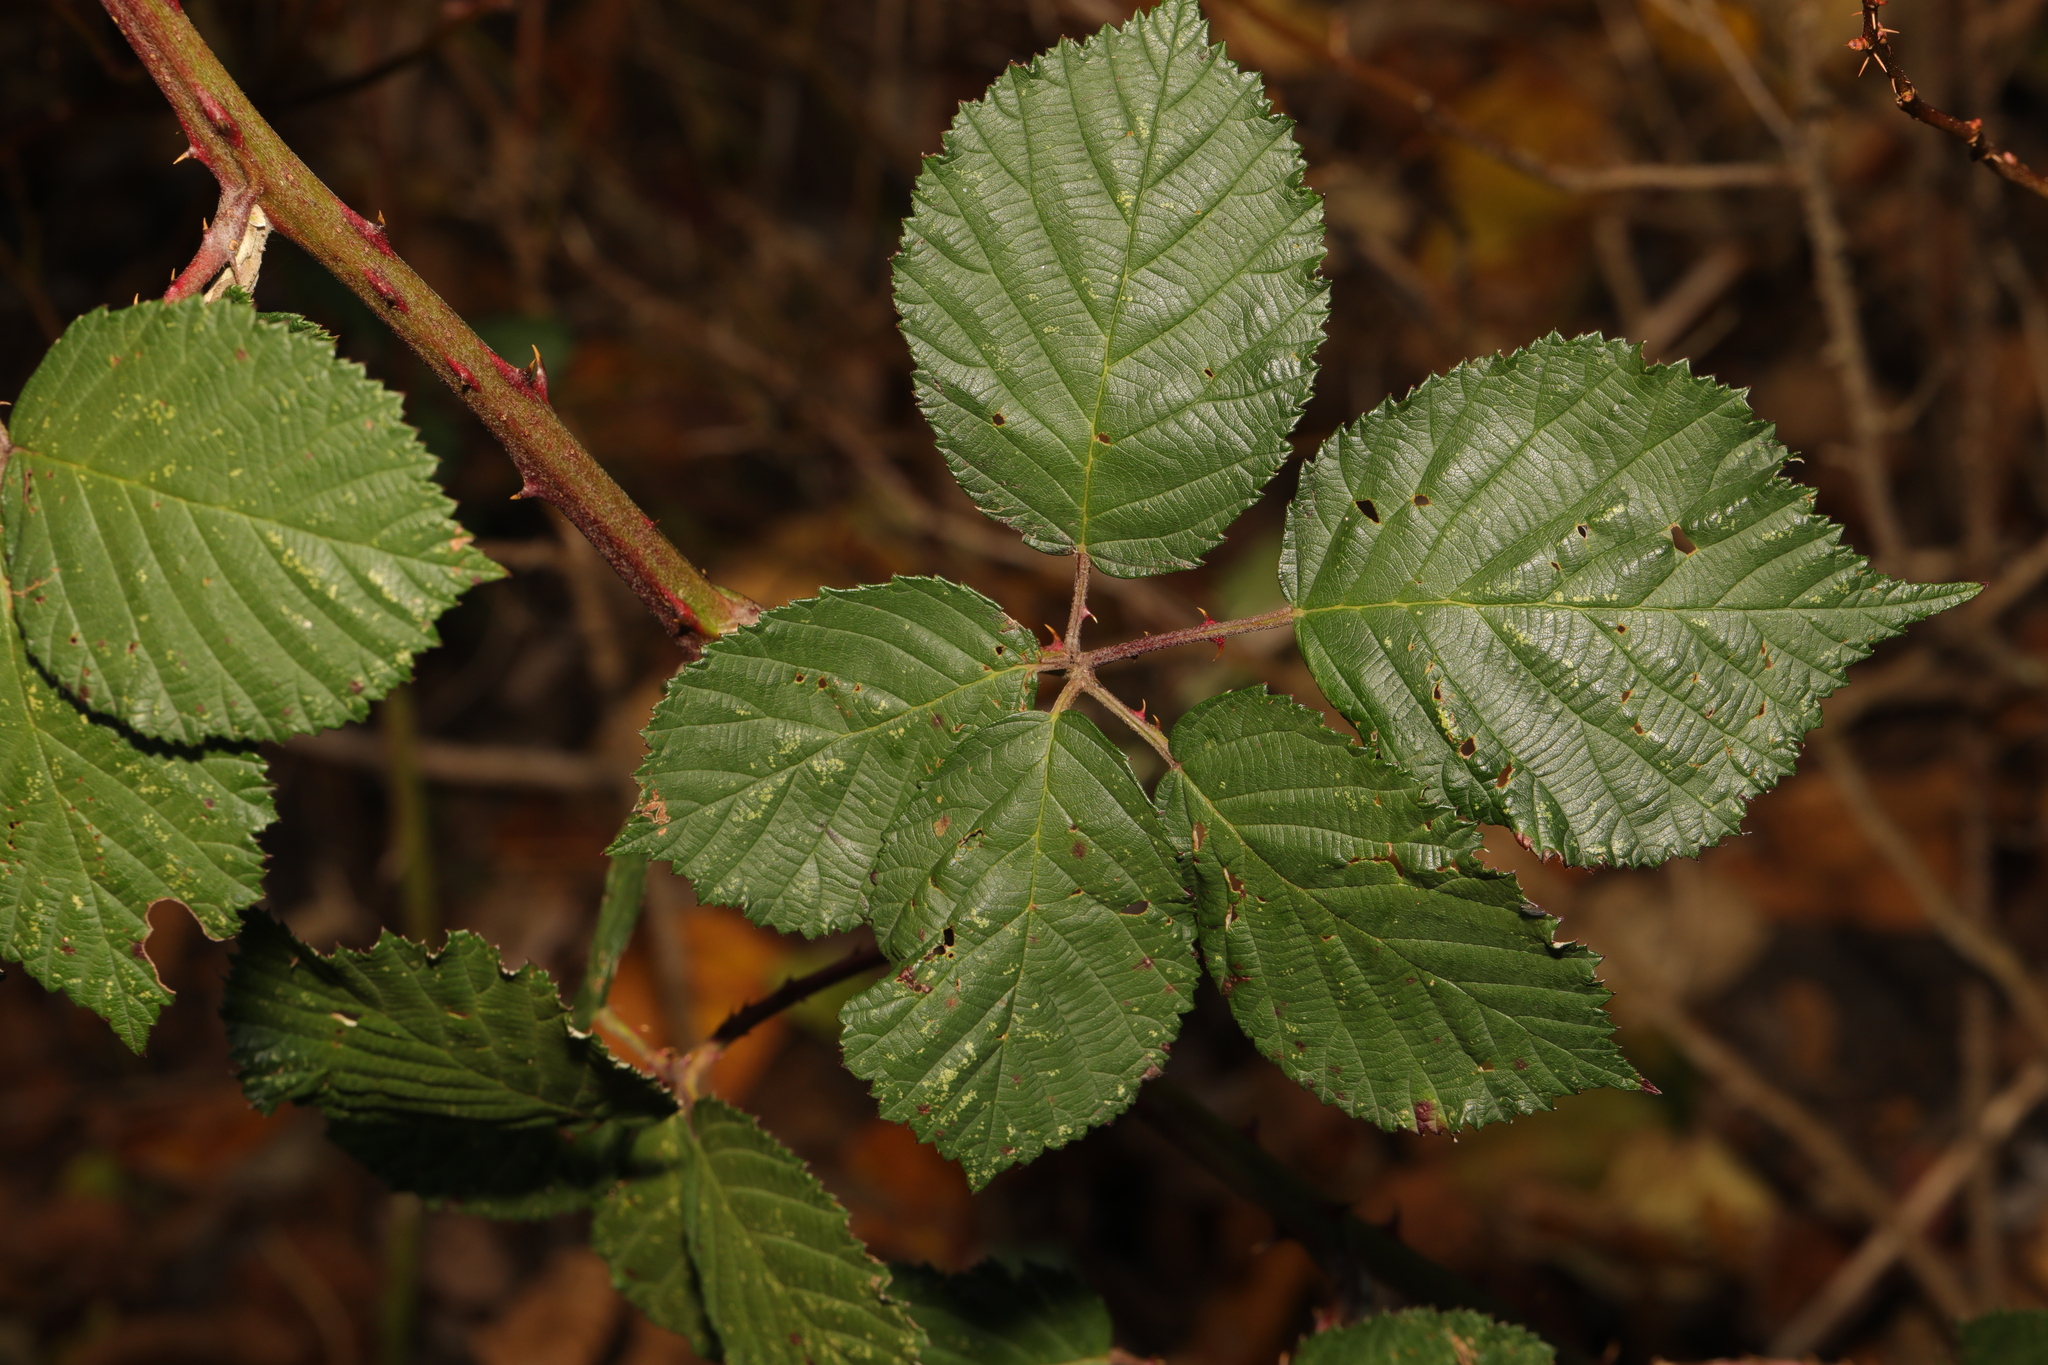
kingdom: Plantae
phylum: Tracheophyta
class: Magnoliopsida
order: Rosales
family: Rosaceae
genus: Rubus
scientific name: Rubus armeniacus
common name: Himalayan blackberry
